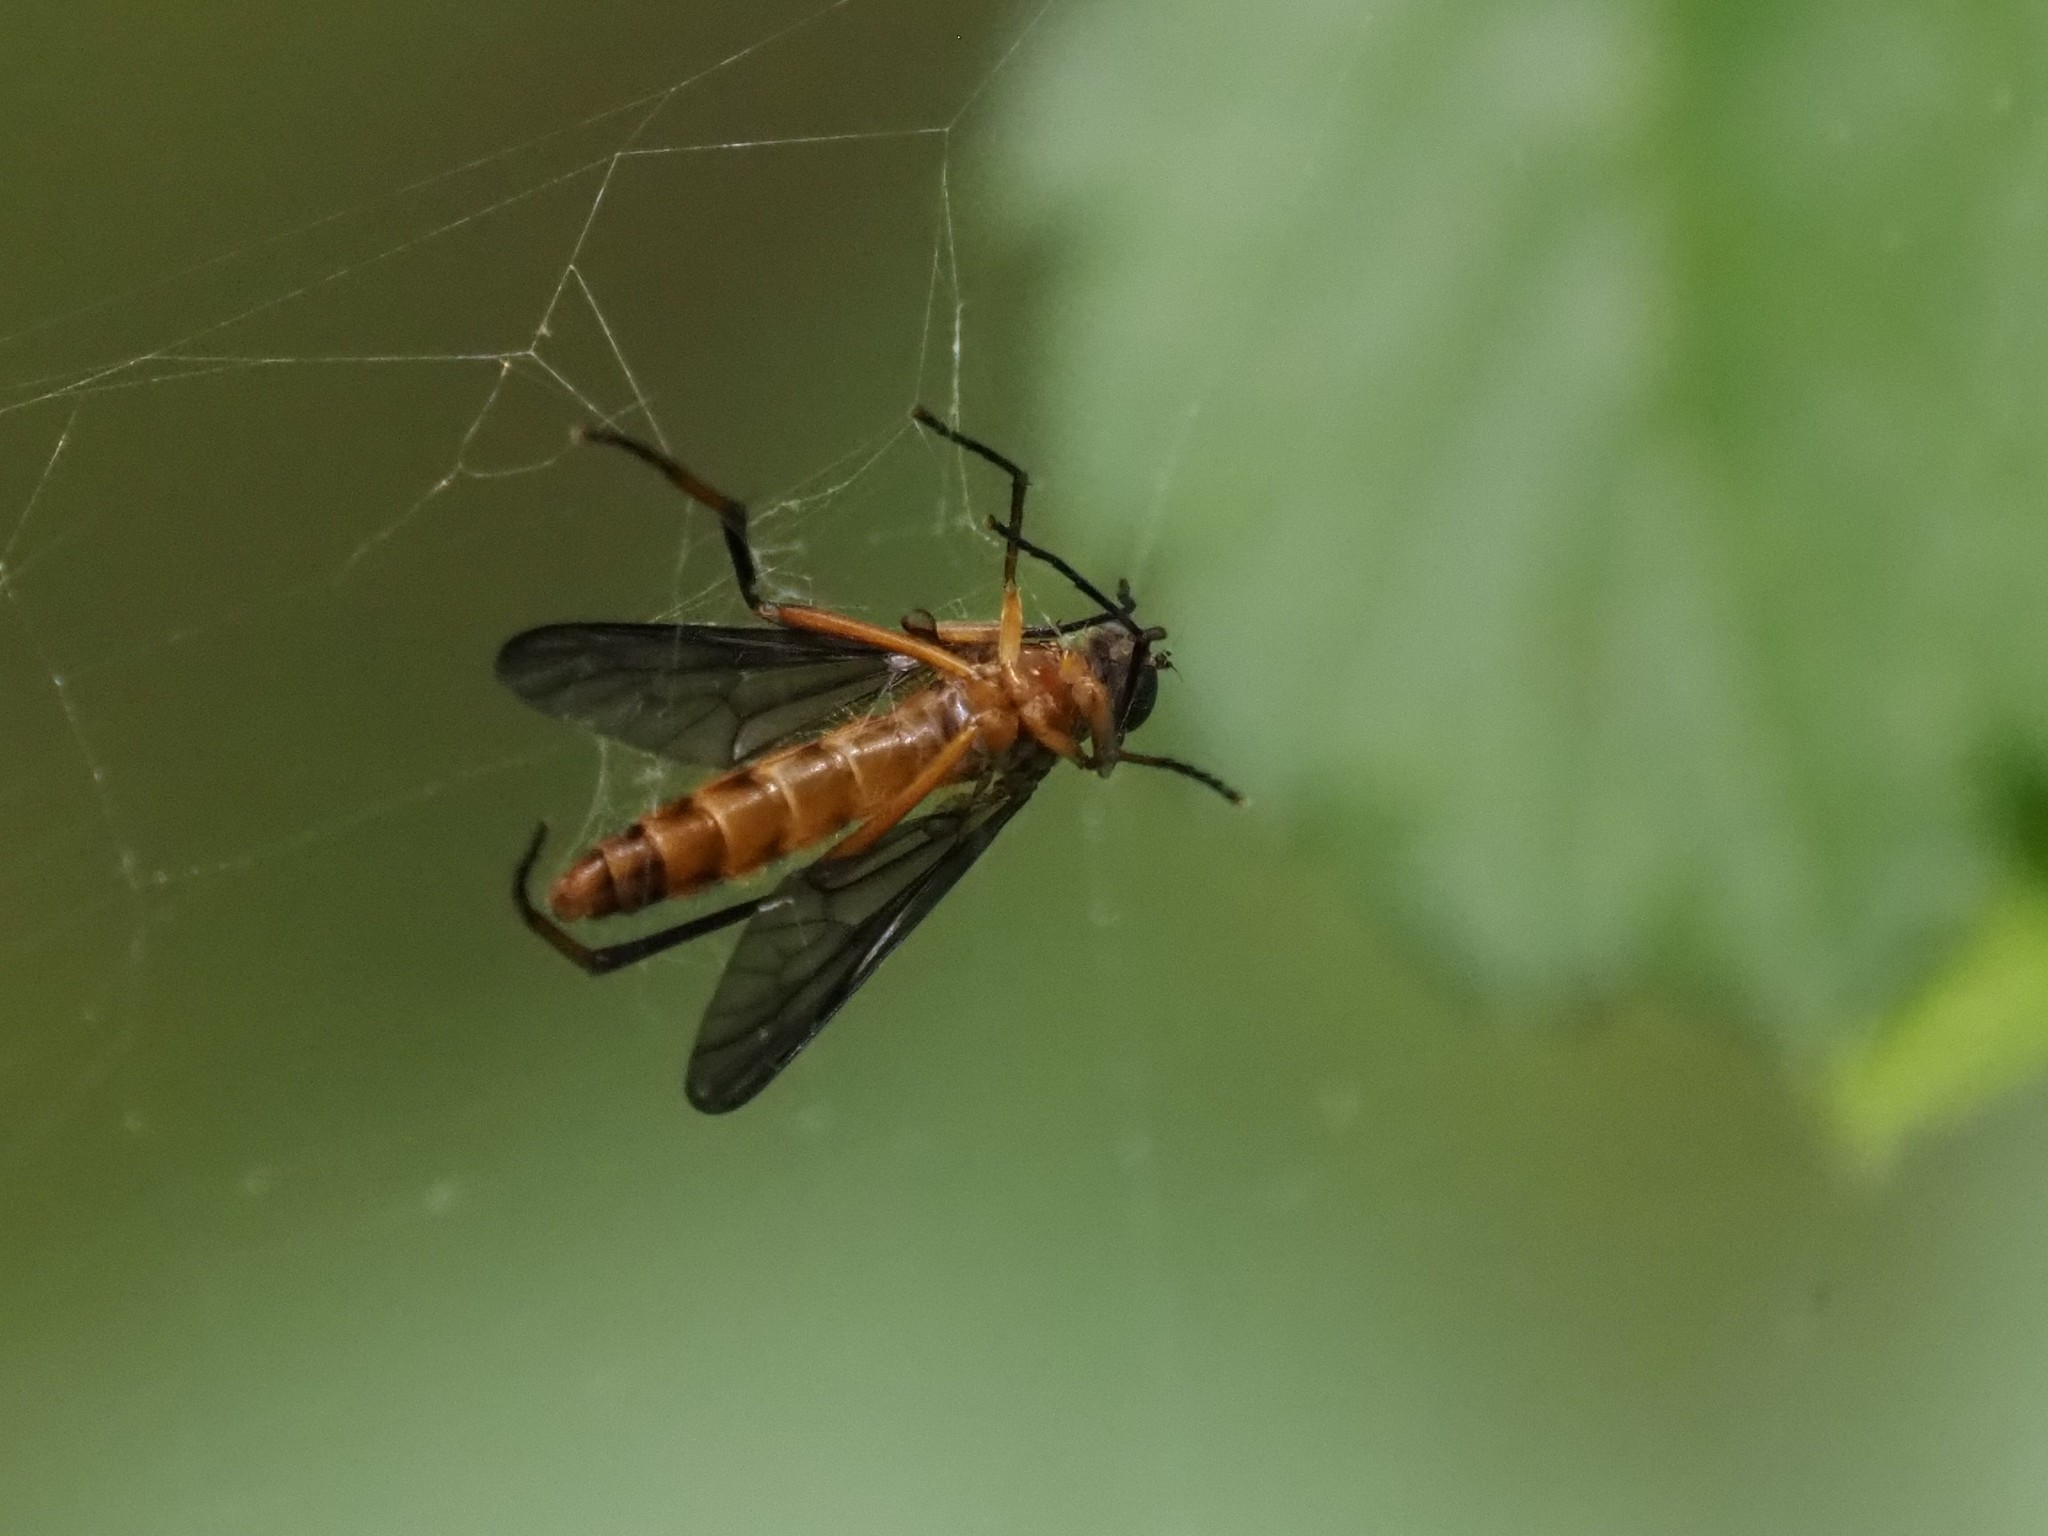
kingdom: Animalia
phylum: Arthropoda
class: Insecta
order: Diptera
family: Xylophagidae
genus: Dialysis
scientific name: Dialysis rufithorax
